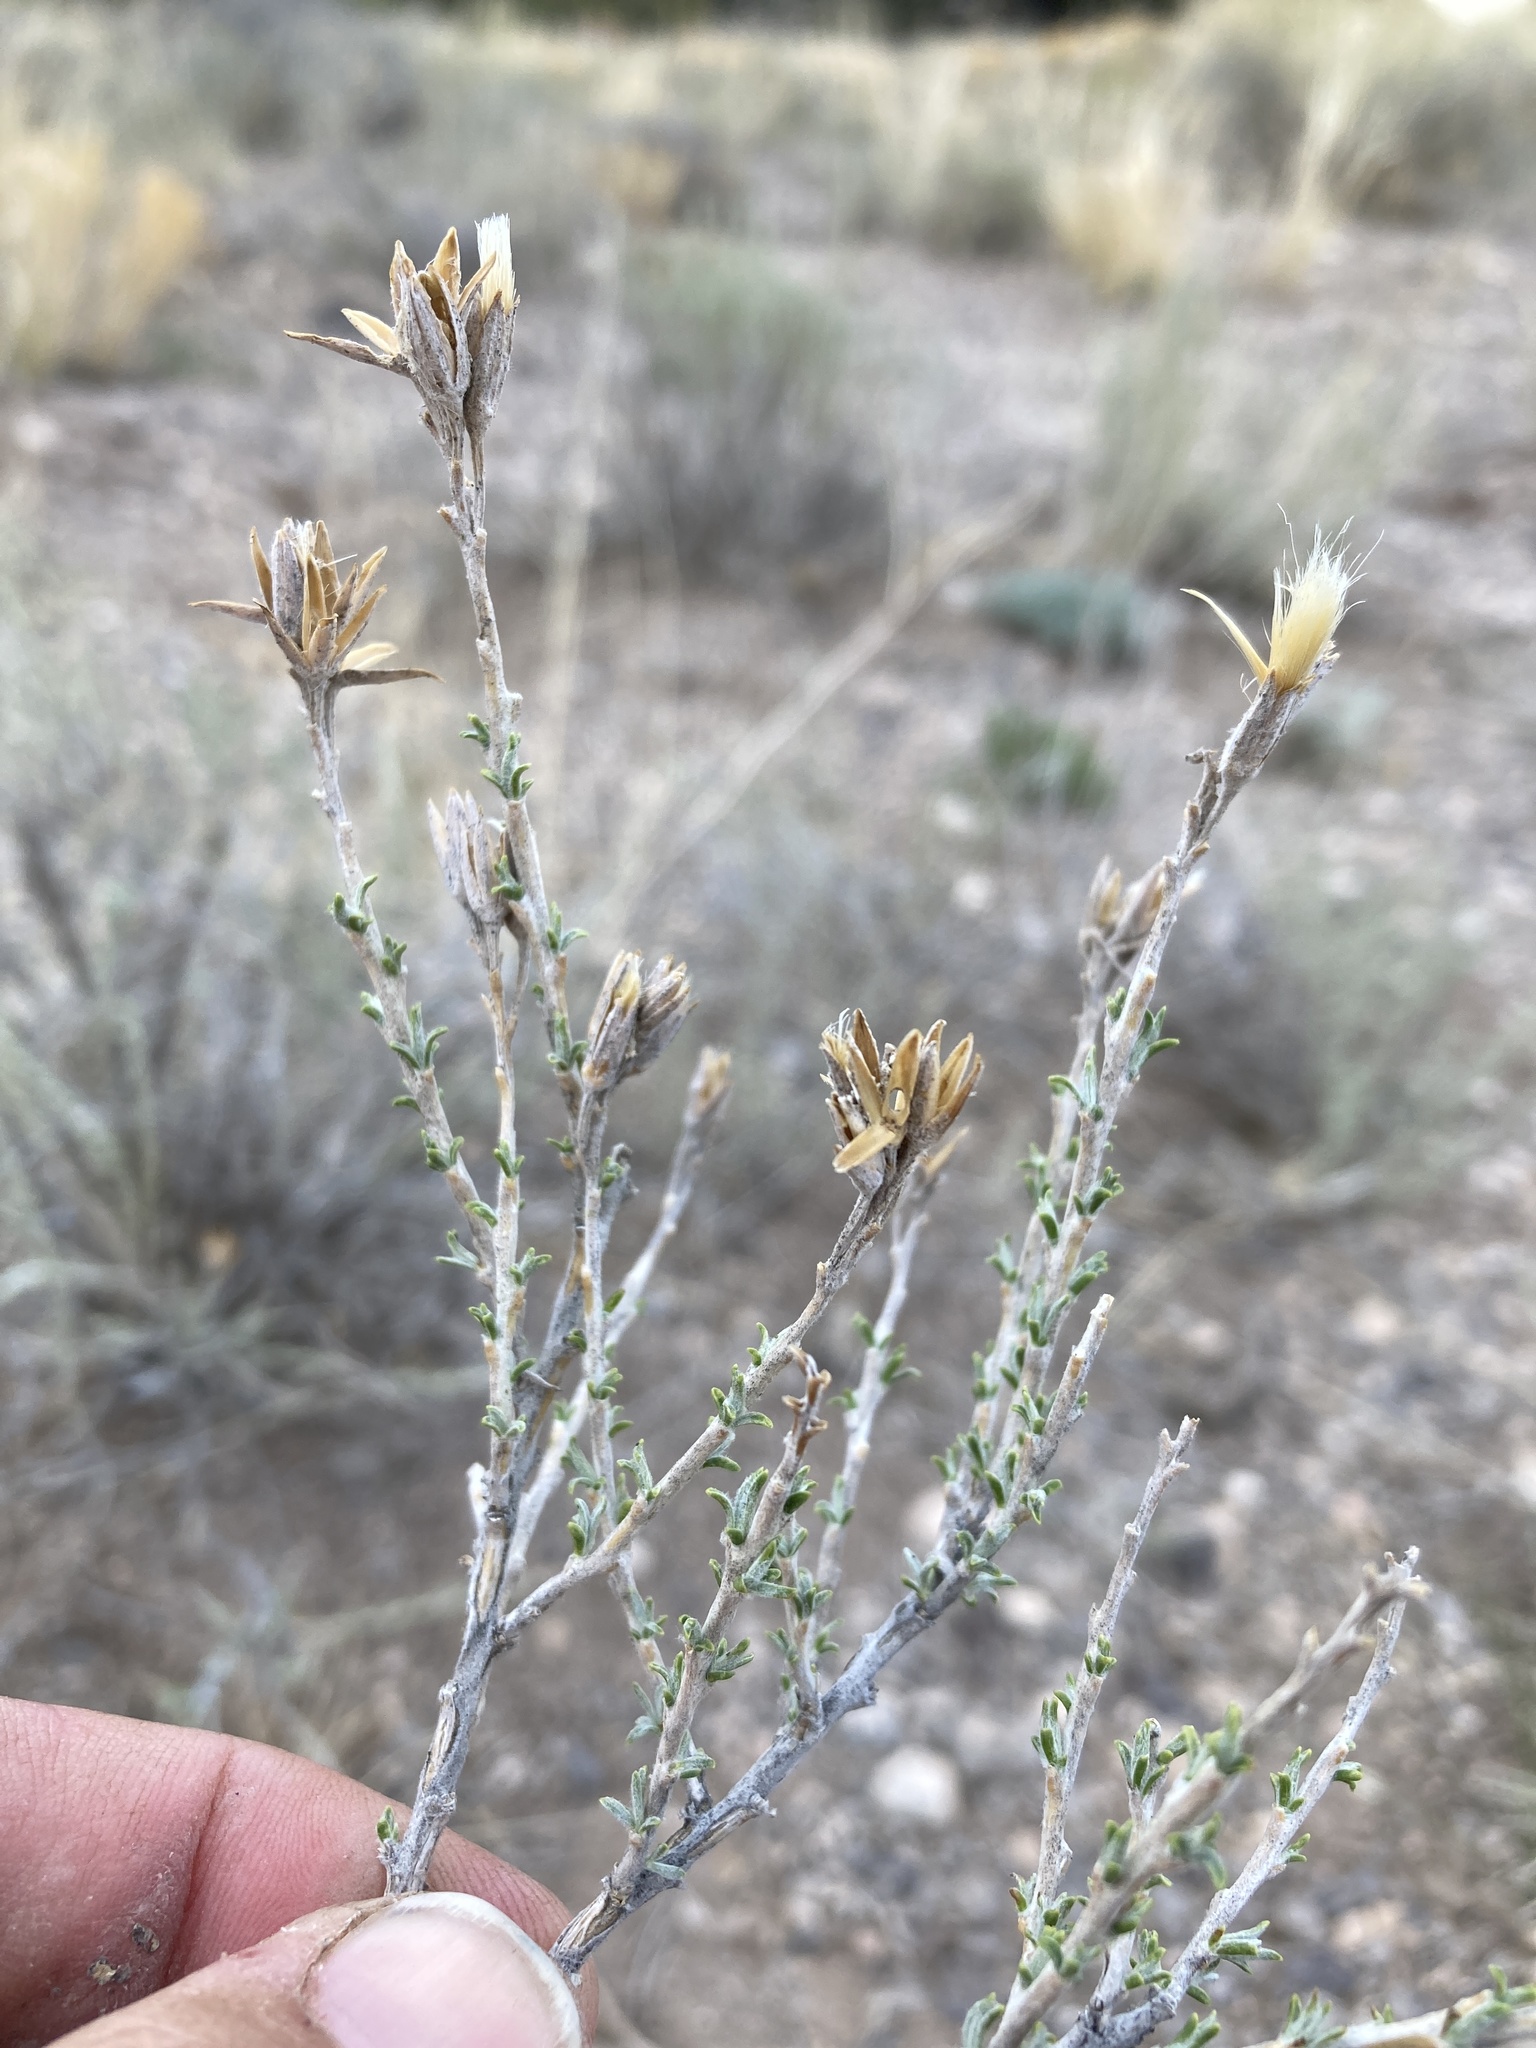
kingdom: Plantae
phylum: Tracheophyta
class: Magnoliopsida
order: Asterales
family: Asteraceae
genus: Tetradymia
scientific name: Tetradymia canescens
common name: Spineless horsebrush
